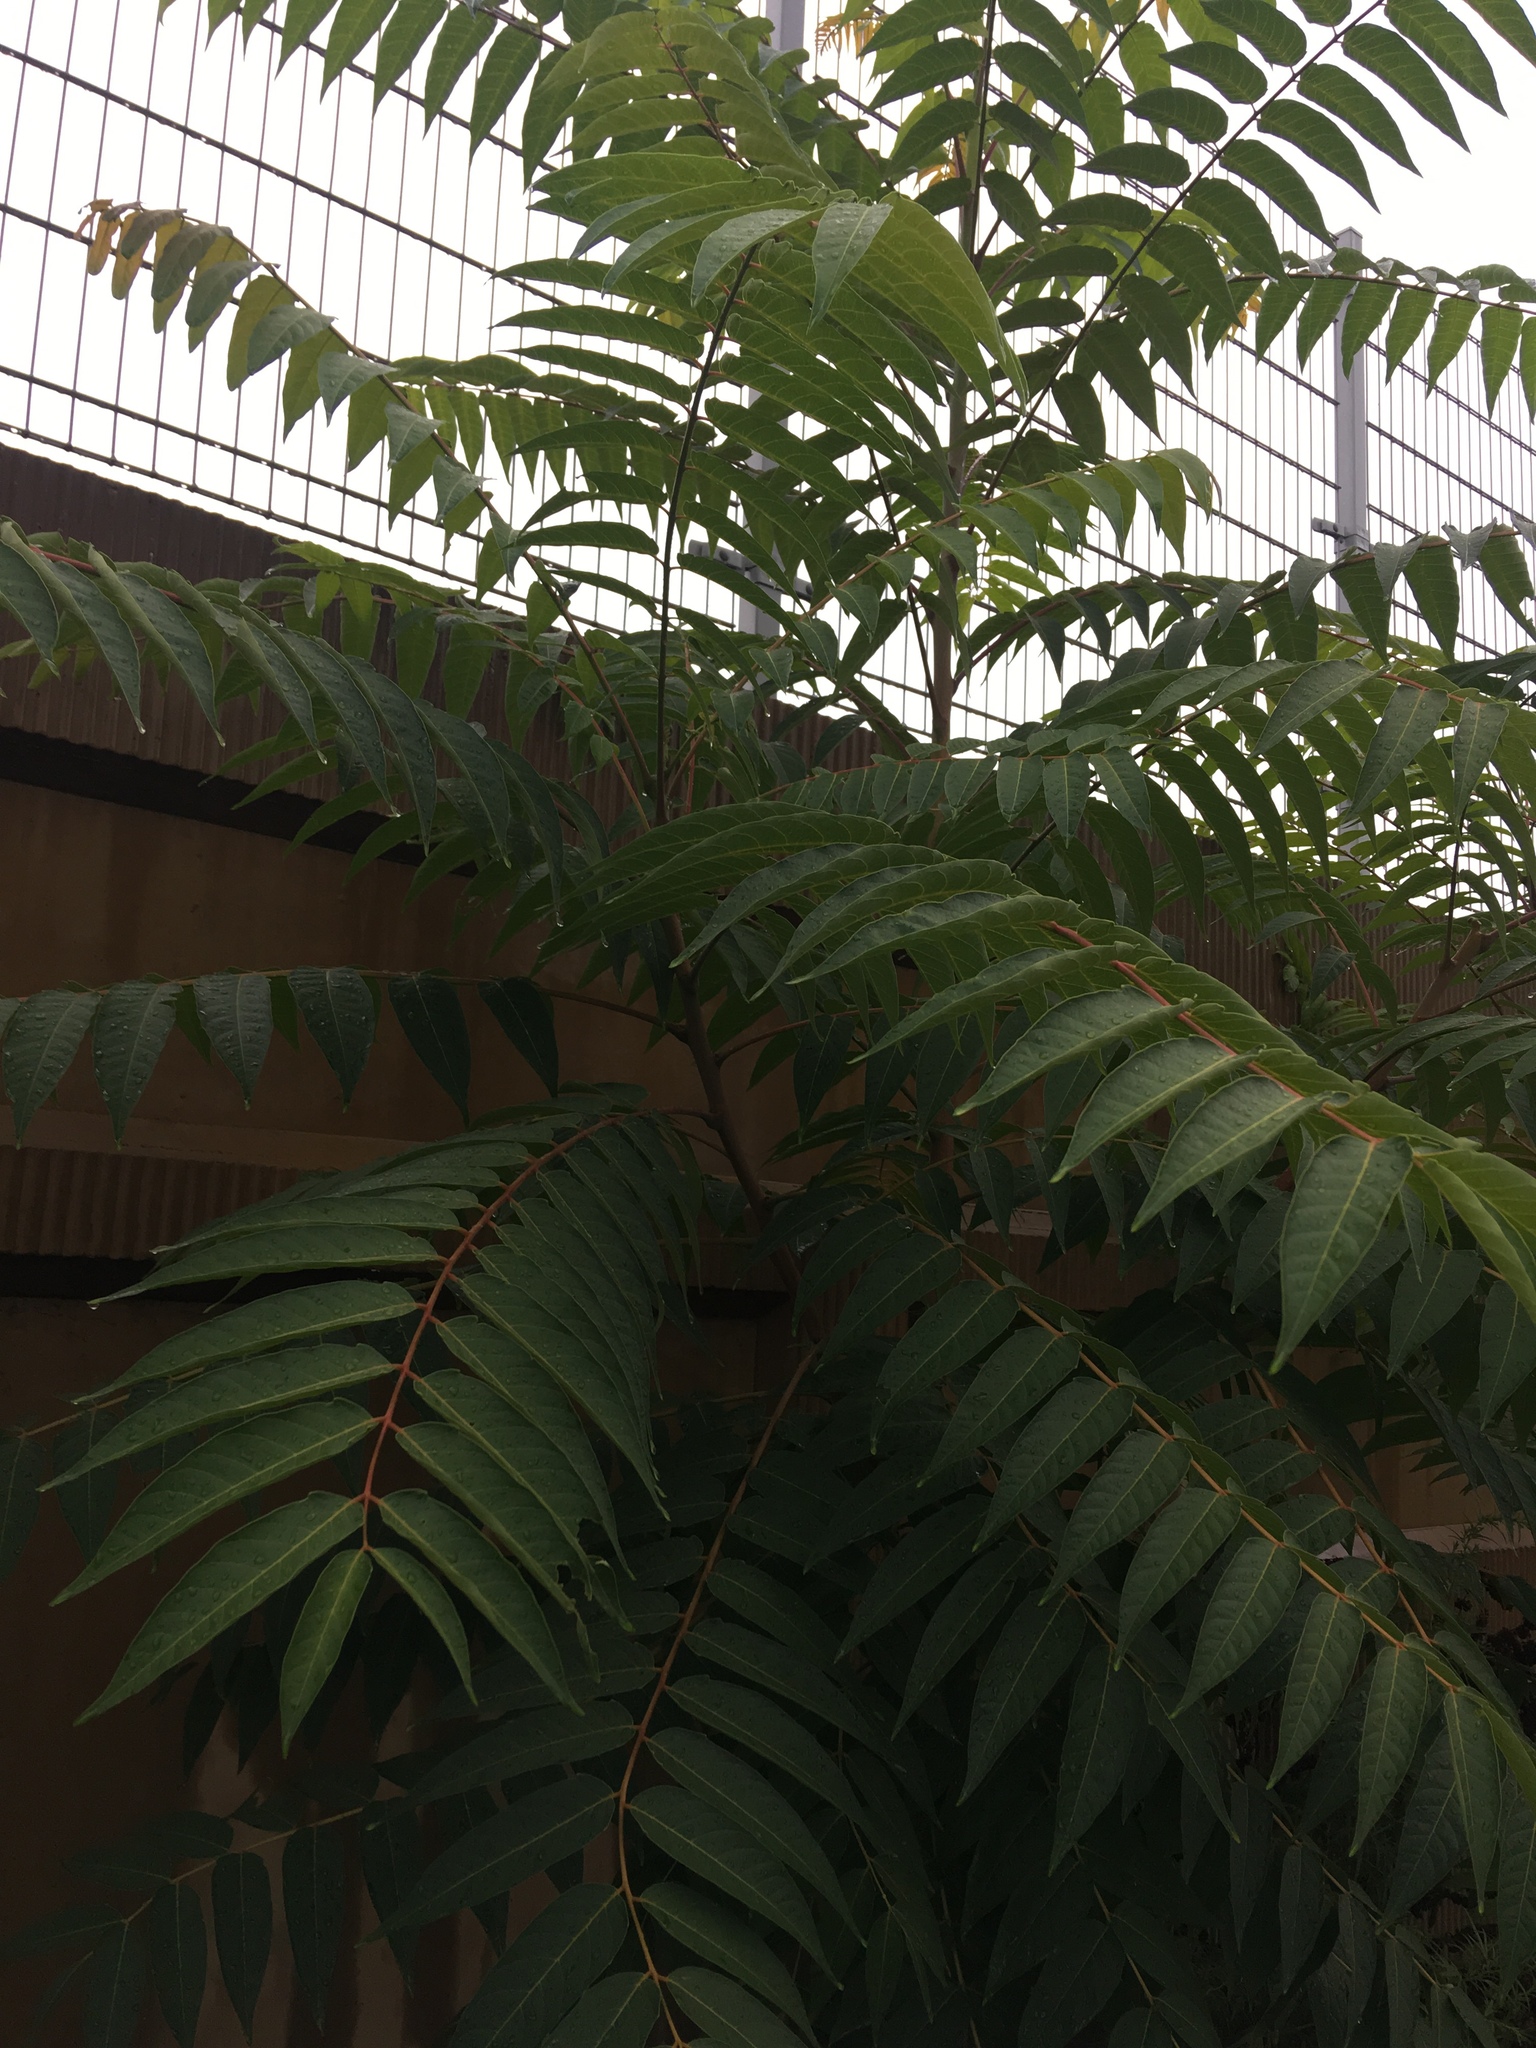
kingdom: Plantae
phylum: Tracheophyta
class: Magnoliopsida
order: Sapindales
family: Simaroubaceae
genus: Ailanthus
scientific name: Ailanthus altissima
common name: Tree-of-heaven
